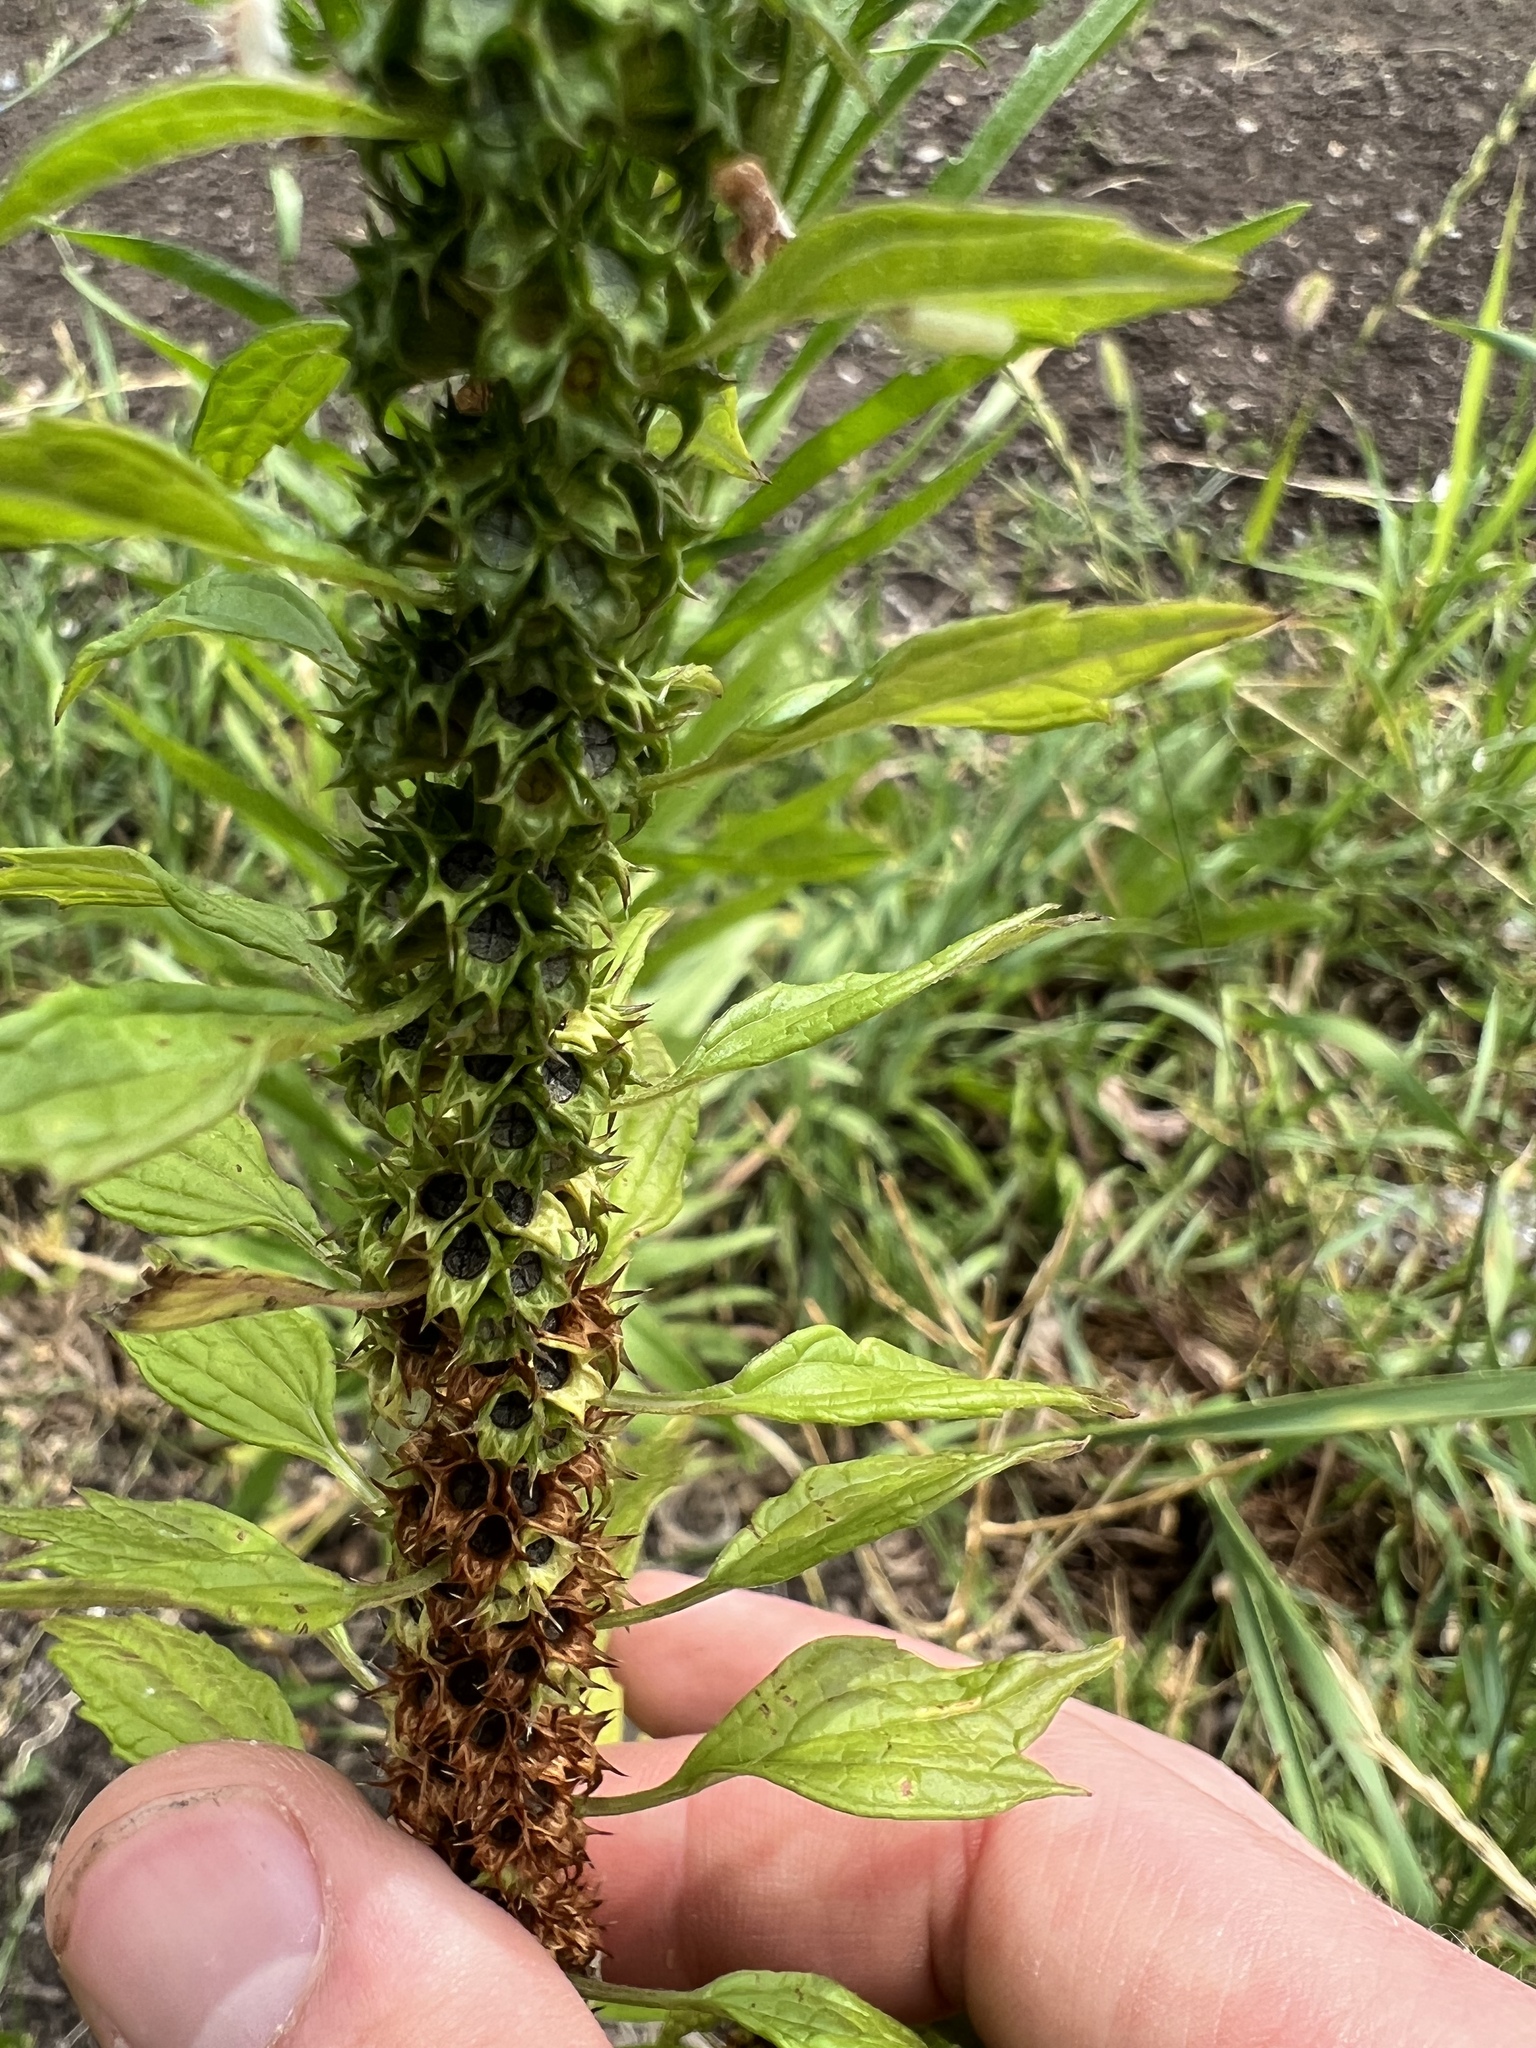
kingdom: Plantae
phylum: Tracheophyta
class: Magnoliopsida
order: Lamiales
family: Lamiaceae
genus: Leonurus
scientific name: Leonurus cardiaca
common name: Motherwort
